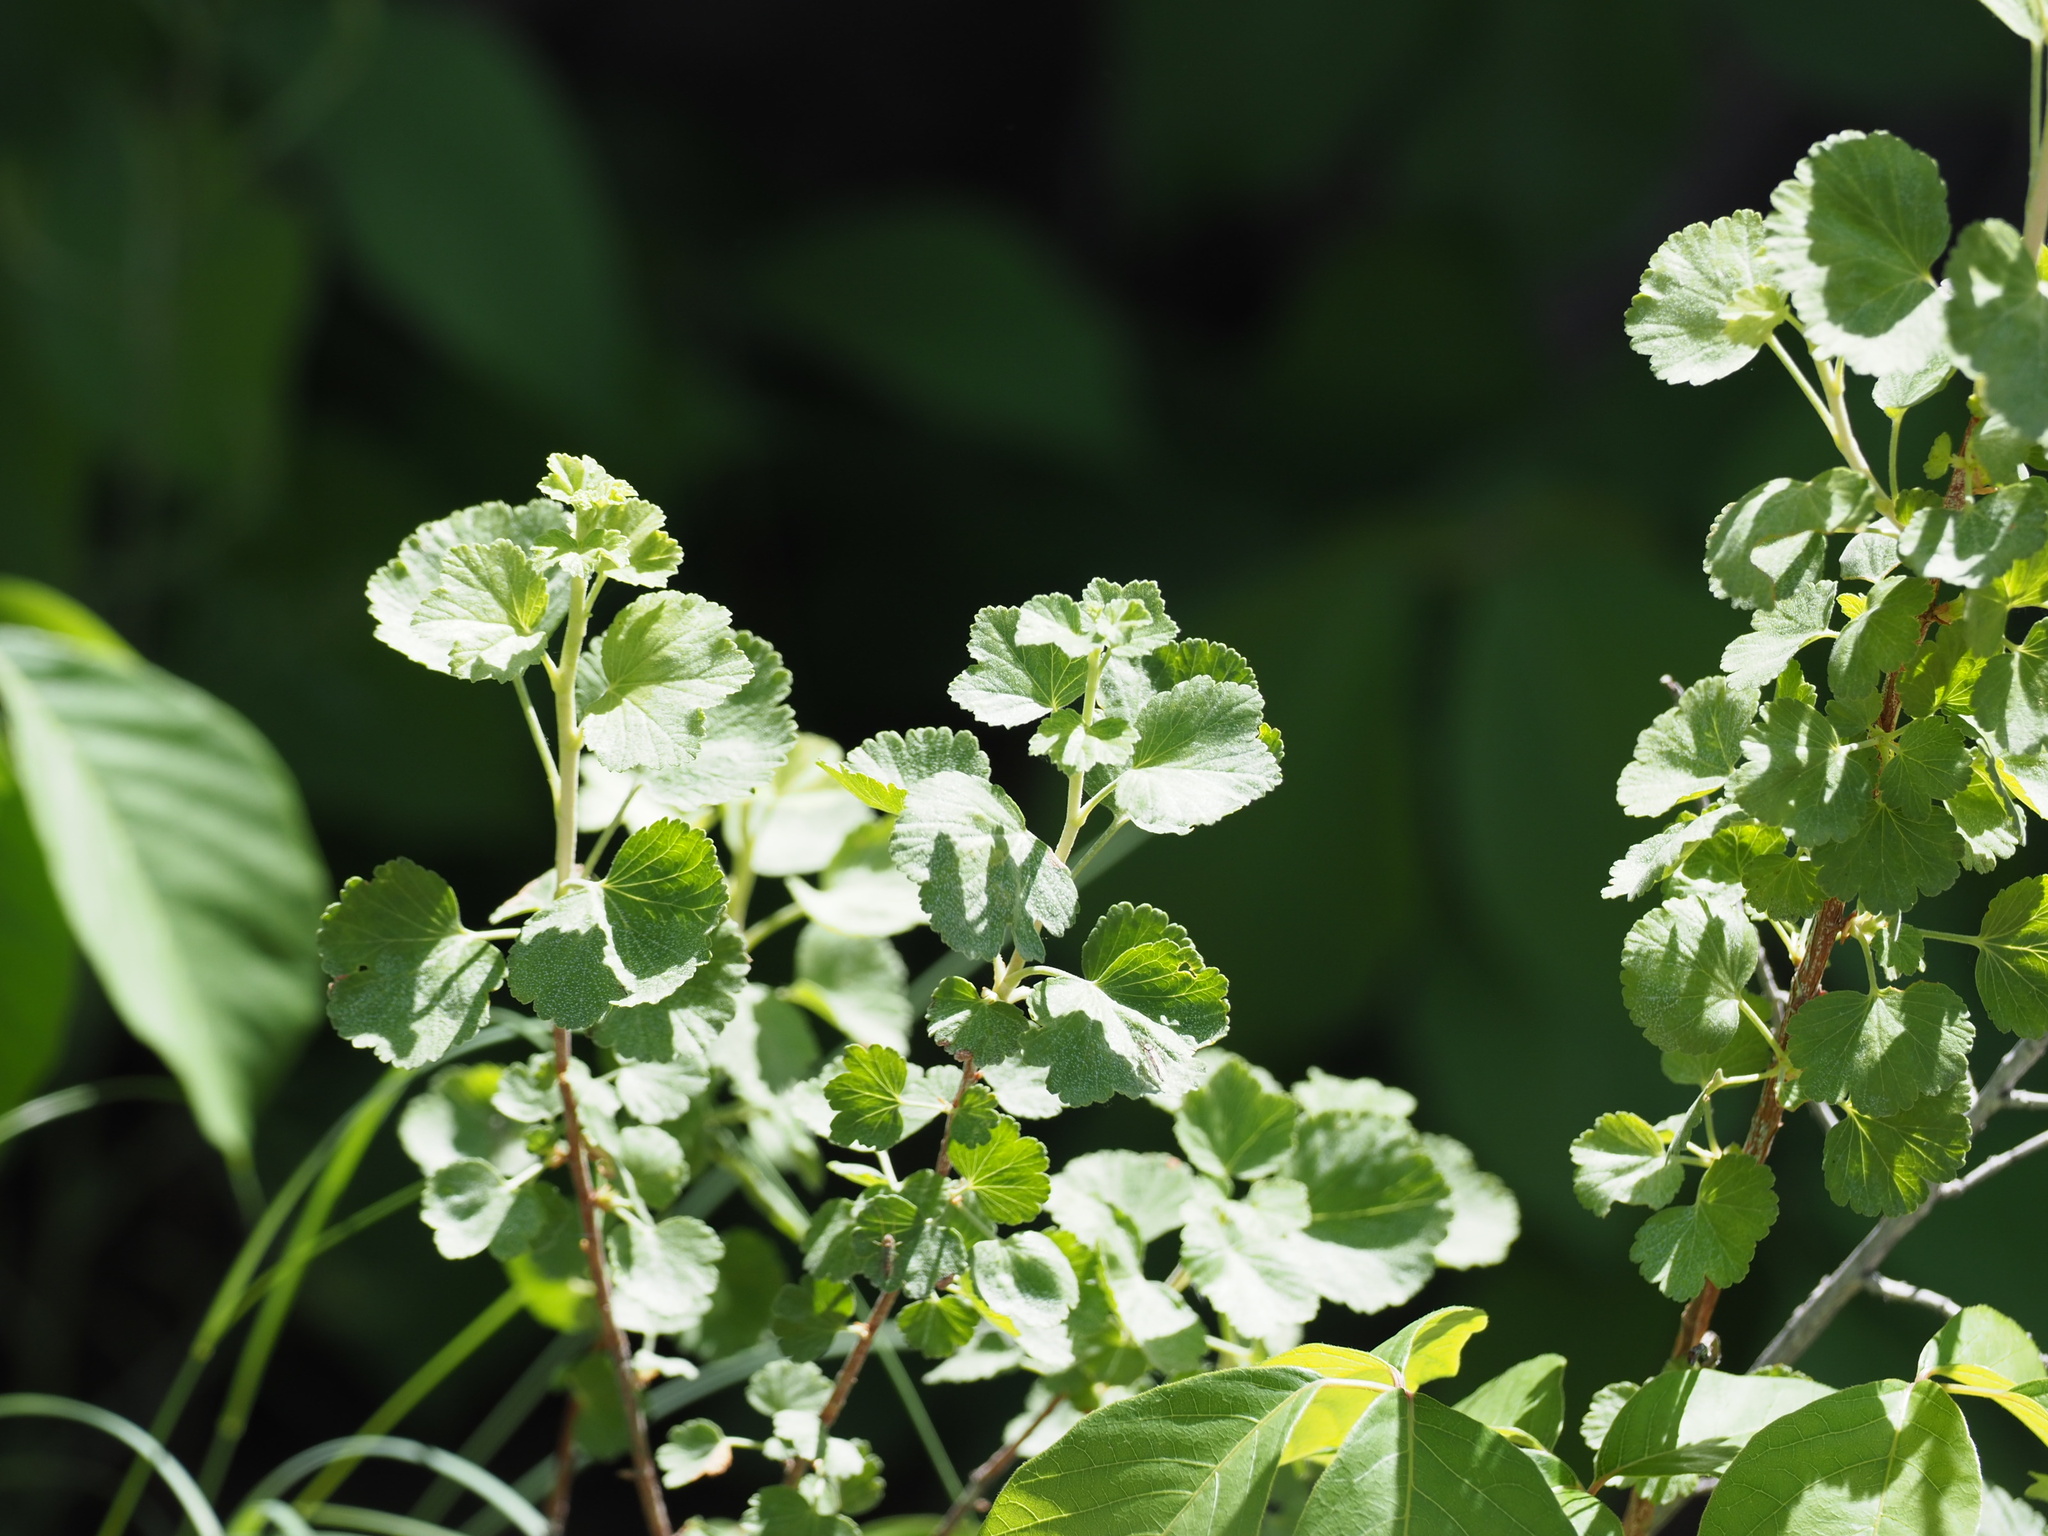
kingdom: Plantae
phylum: Tracheophyta
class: Magnoliopsida
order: Saxifragales
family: Grossulariaceae
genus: Ribes
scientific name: Ribes cereum
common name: Wax currant
